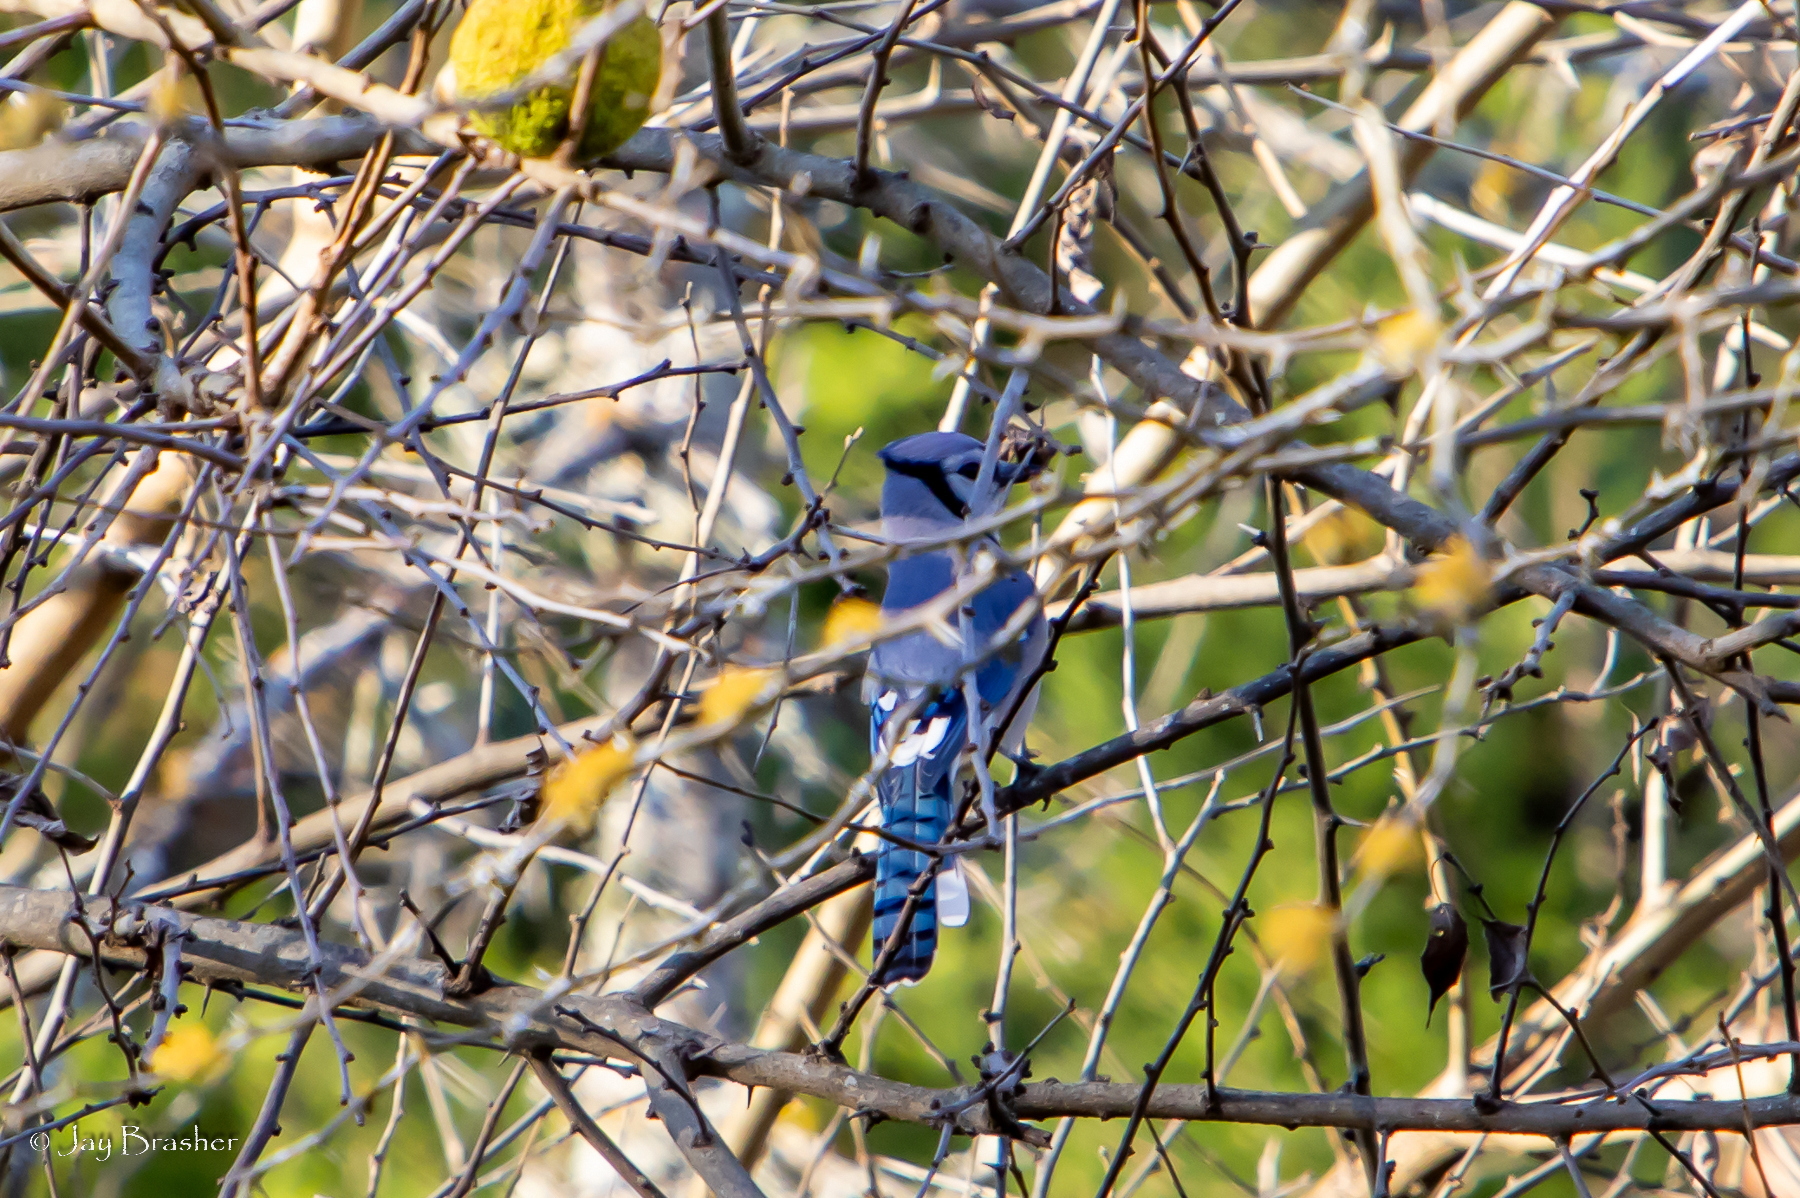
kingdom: Animalia
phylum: Chordata
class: Aves
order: Passeriformes
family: Corvidae
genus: Cyanocitta
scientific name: Cyanocitta cristata
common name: Blue jay
